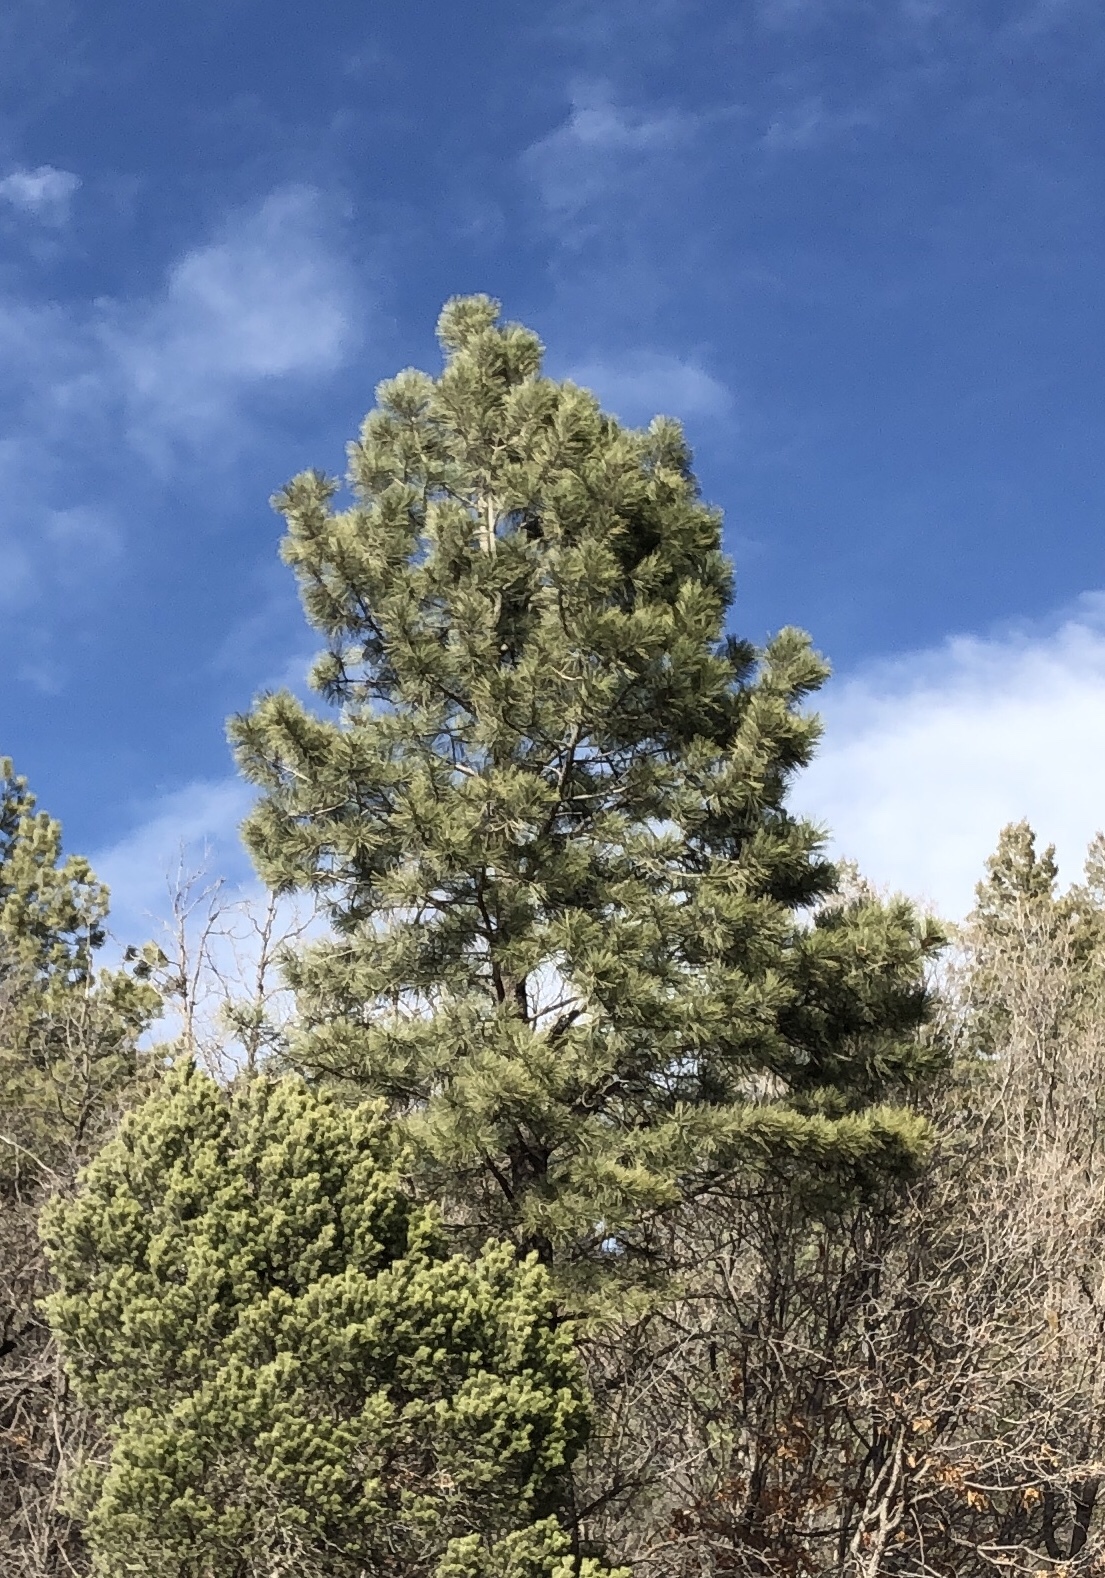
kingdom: Plantae
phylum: Tracheophyta
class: Pinopsida
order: Pinales
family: Pinaceae
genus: Pinus
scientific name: Pinus ponderosa
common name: Western yellow-pine
